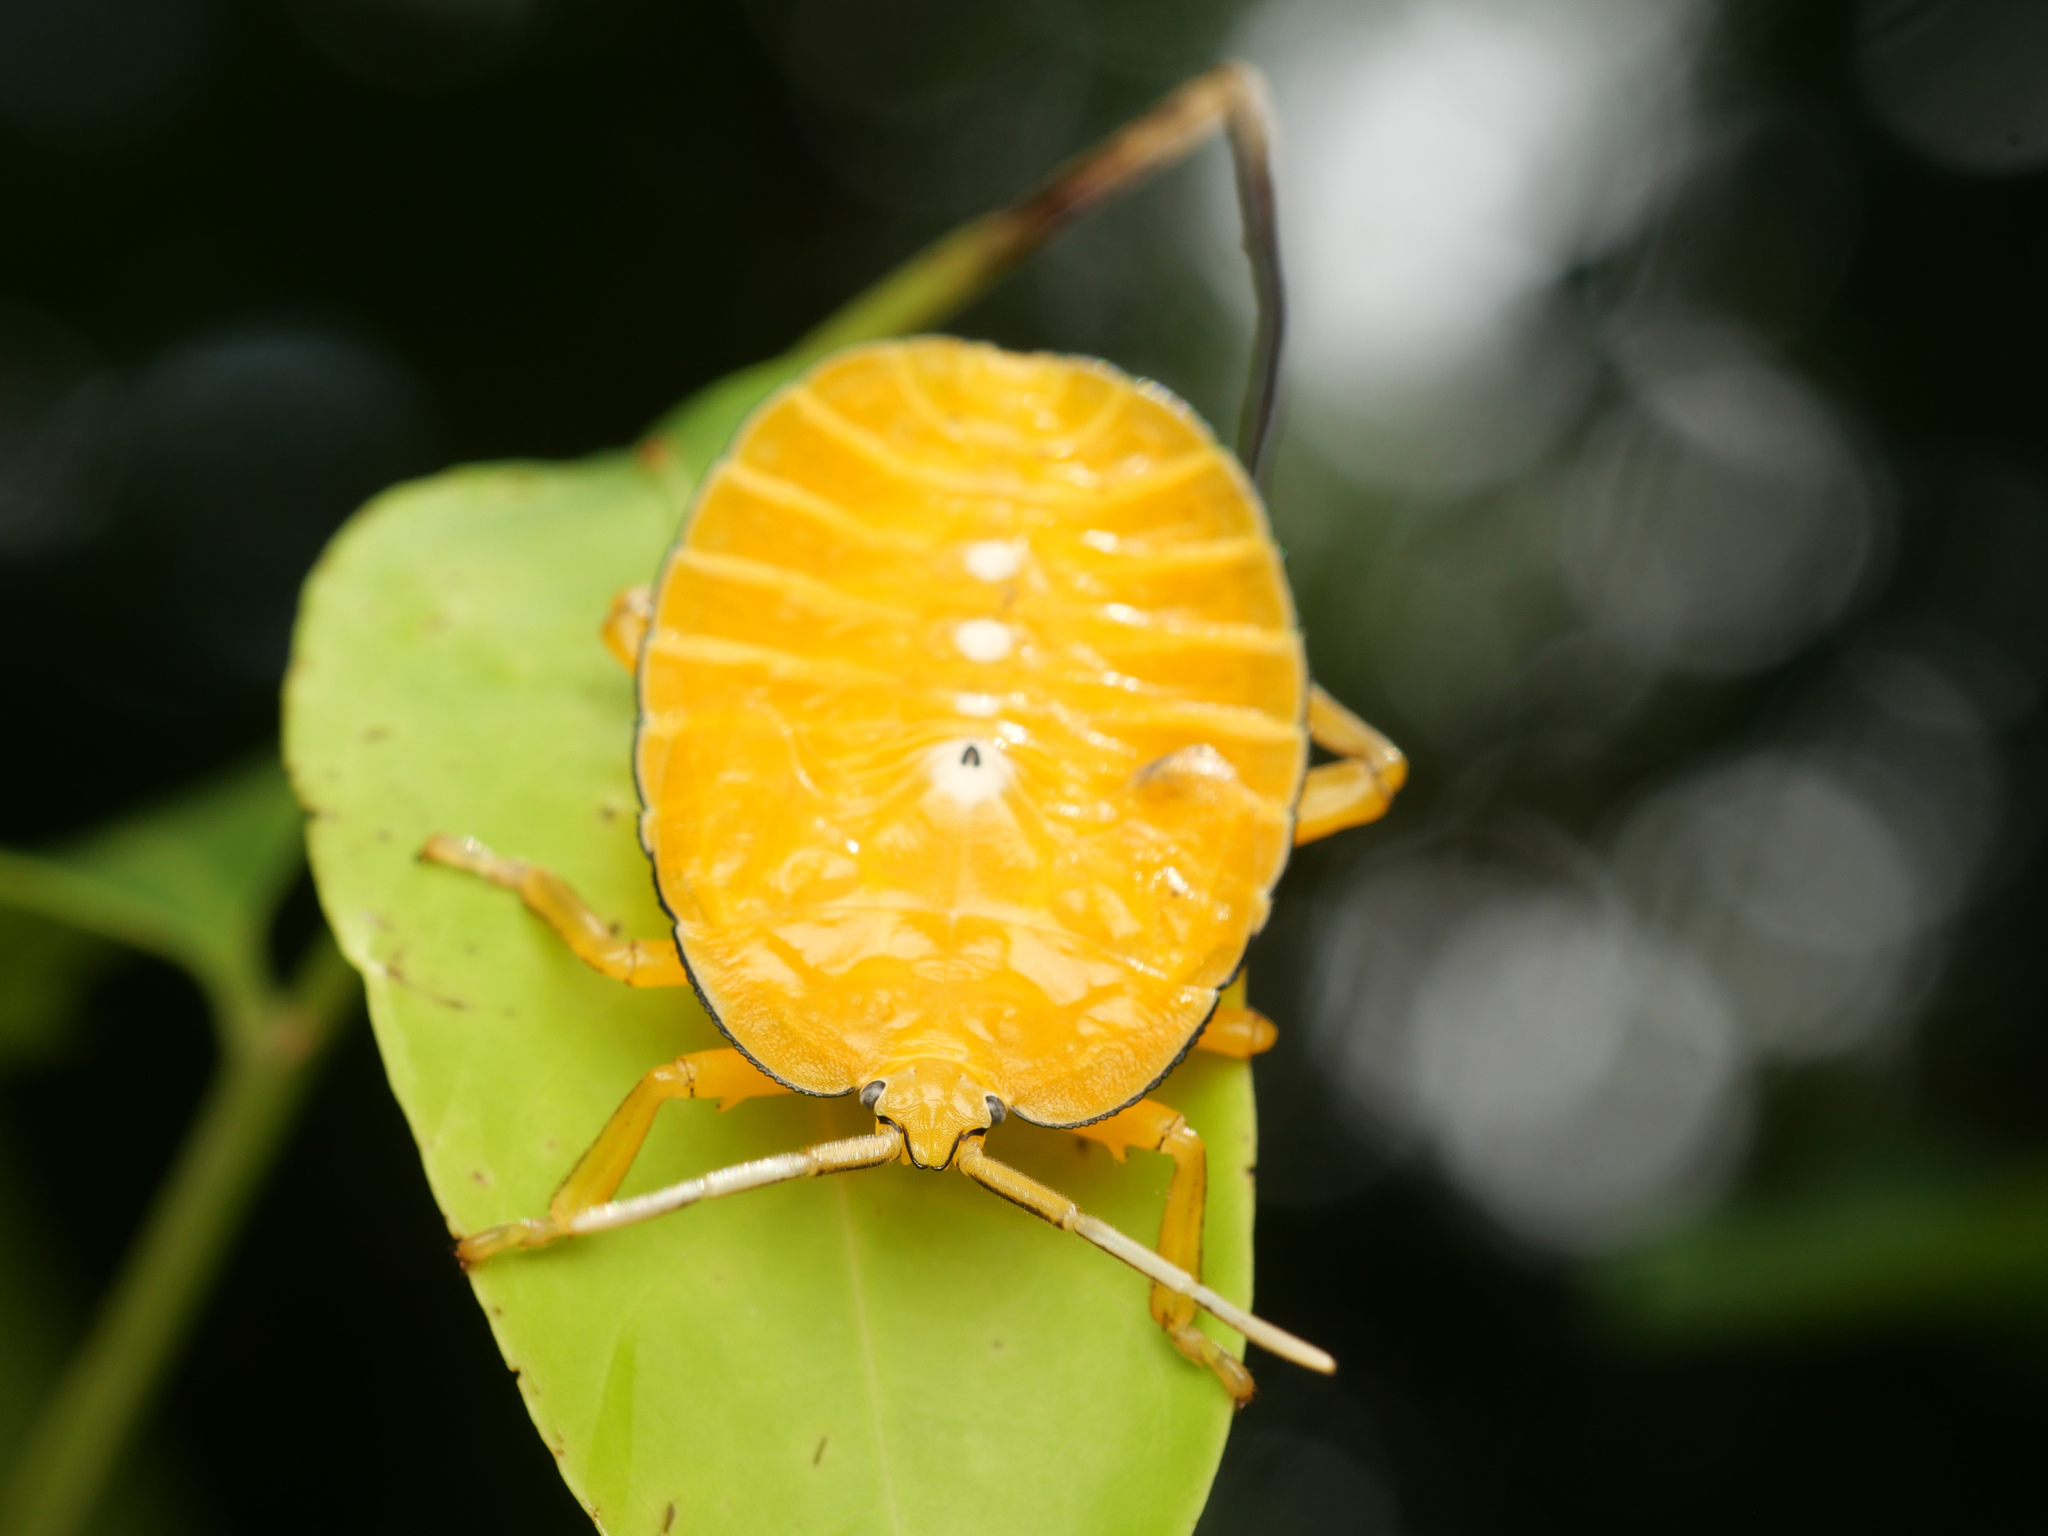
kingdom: Animalia
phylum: Arthropoda
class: Insecta
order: Hemiptera
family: Tessaratomidae
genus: Oncomeris
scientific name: Oncomeris flavicornis
